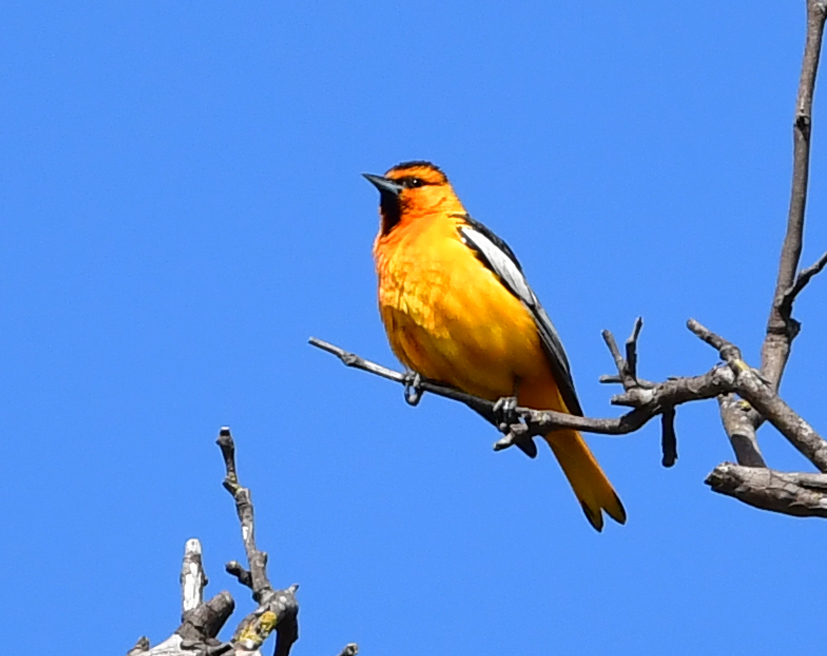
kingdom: Animalia
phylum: Chordata
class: Aves
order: Passeriformes
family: Icteridae
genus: Icterus
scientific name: Icterus bullockii
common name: Bullock's oriole
